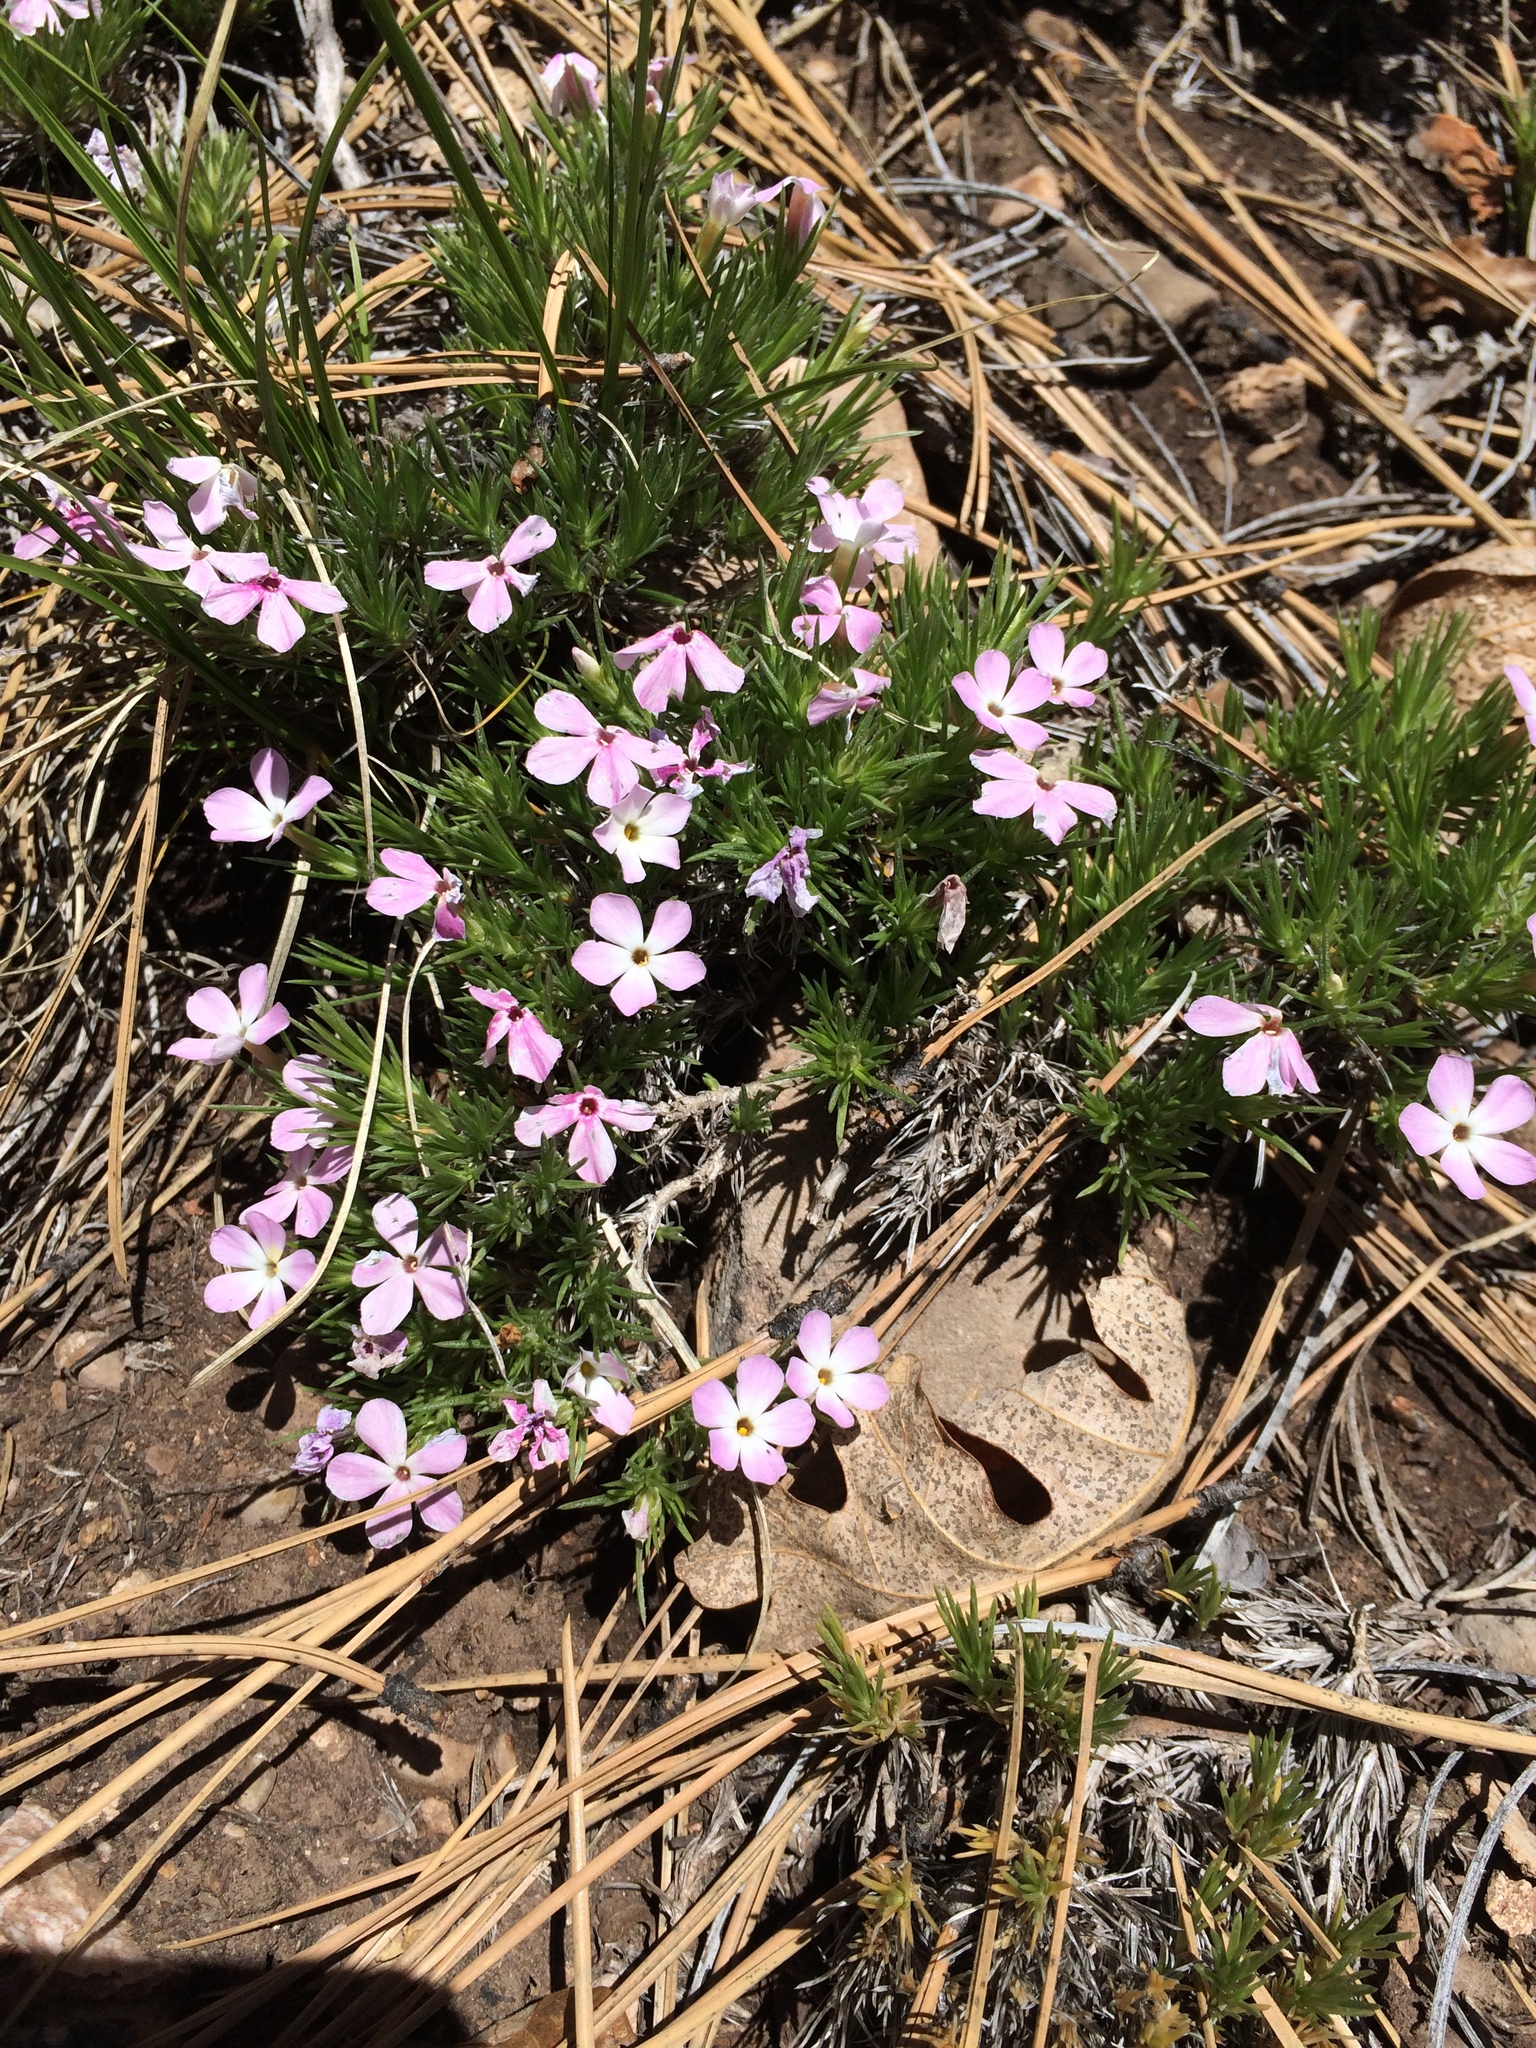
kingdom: Plantae
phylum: Tracheophyta
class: Magnoliopsida
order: Ericales
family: Polemoniaceae
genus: Phlox
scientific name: Phlox austromontana
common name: Desert phlox
